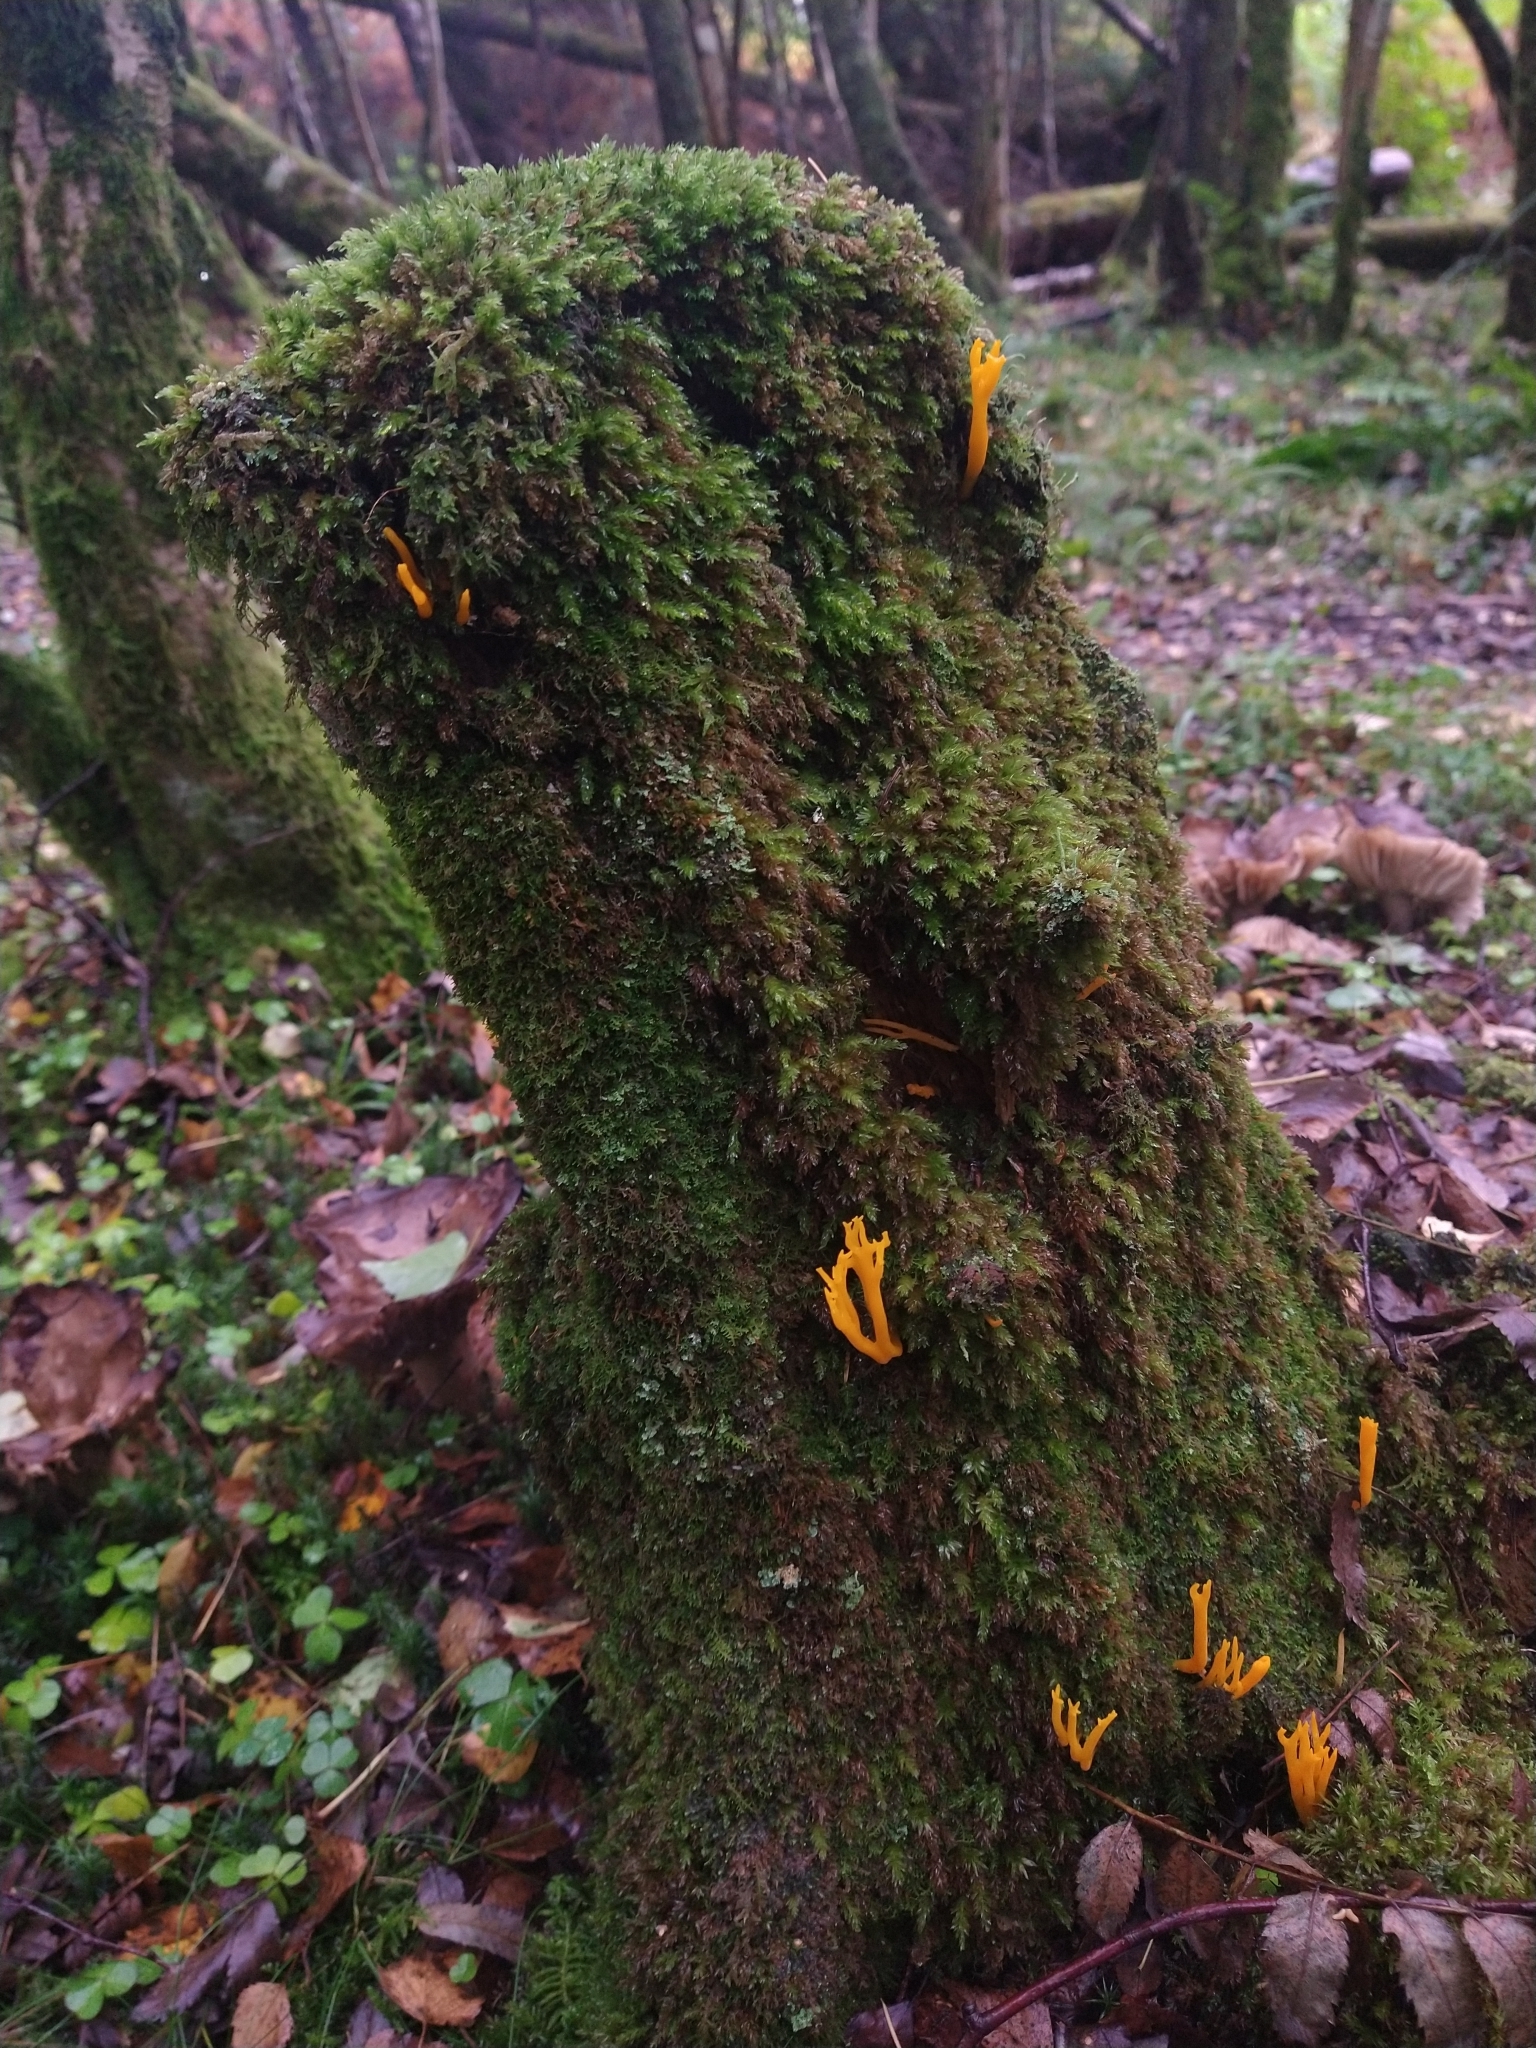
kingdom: Fungi
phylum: Basidiomycota
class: Dacrymycetes
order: Dacrymycetales
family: Dacrymycetaceae
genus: Calocera
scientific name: Calocera viscosa
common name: Yellow stagshorn
